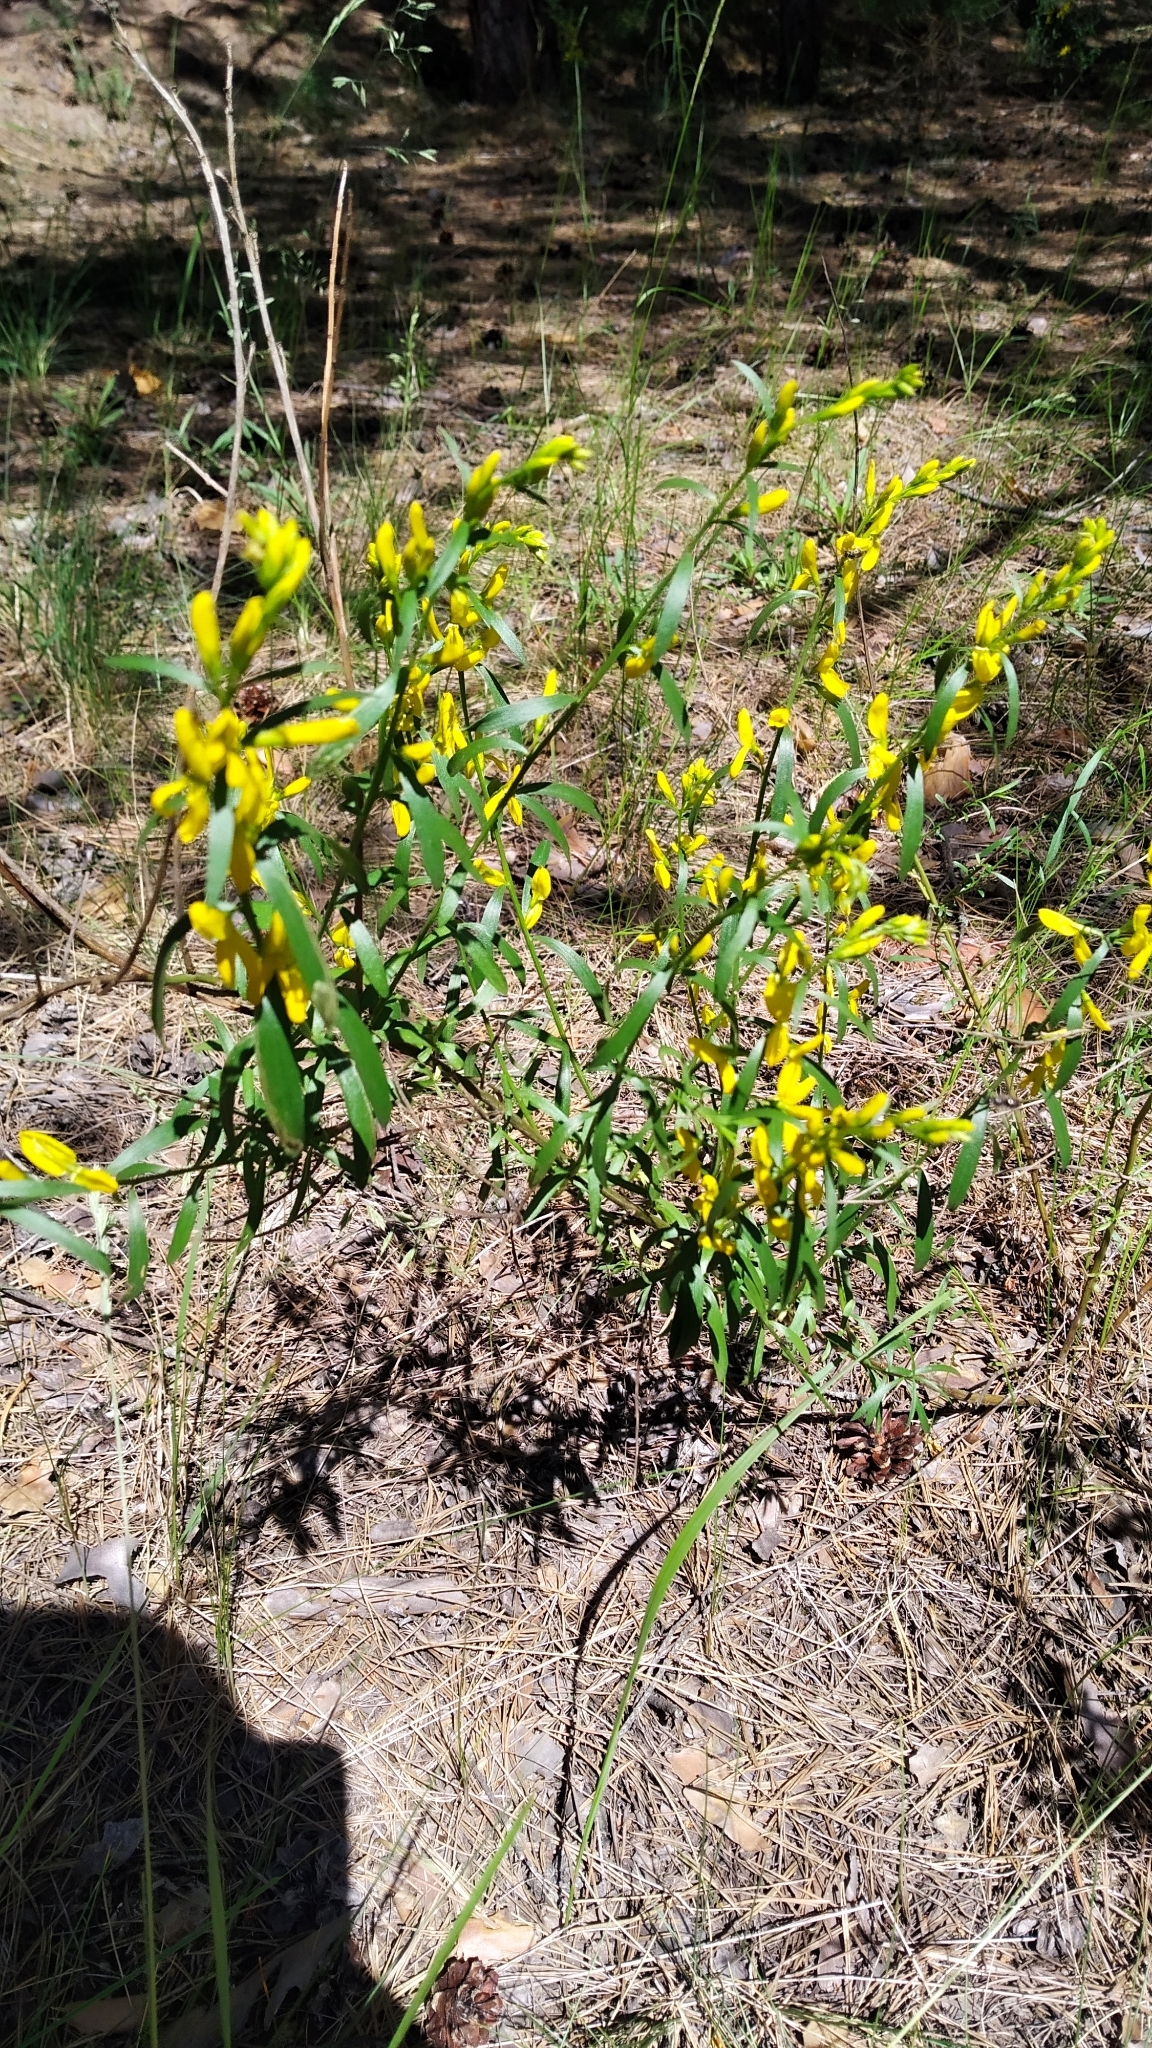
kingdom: Plantae
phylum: Tracheophyta
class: Magnoliopsida
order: Fabales
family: Fabaceae
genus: Genista
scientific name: Genista tinctoria
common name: Dyer's greenweed
